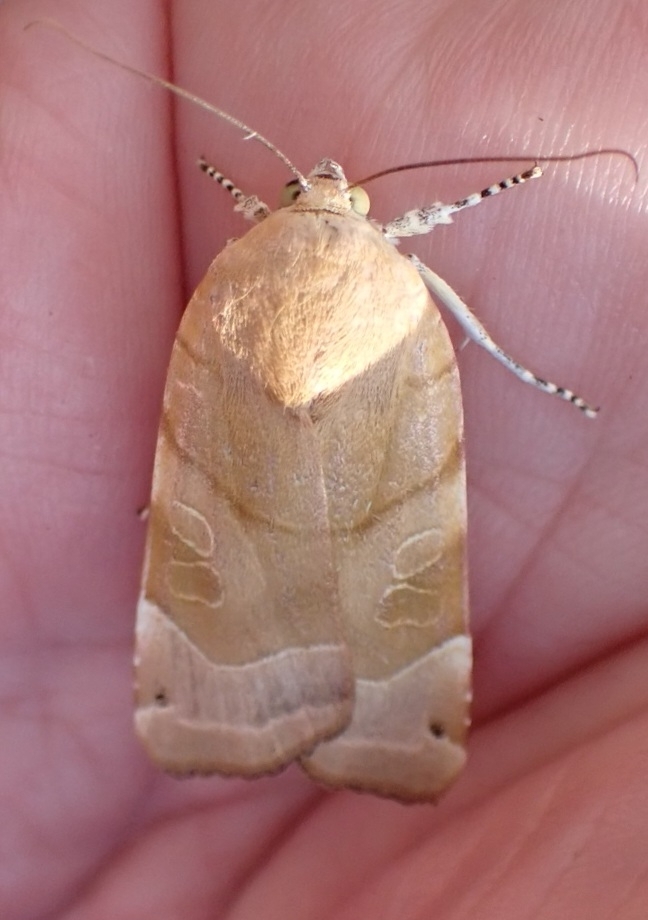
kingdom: Animalia
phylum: Arthropoda
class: Insecta
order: Lepidoptera
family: Noctuidae
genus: Noctua
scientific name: Noctua fimbriata
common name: Broad-bordered yellow underwing
